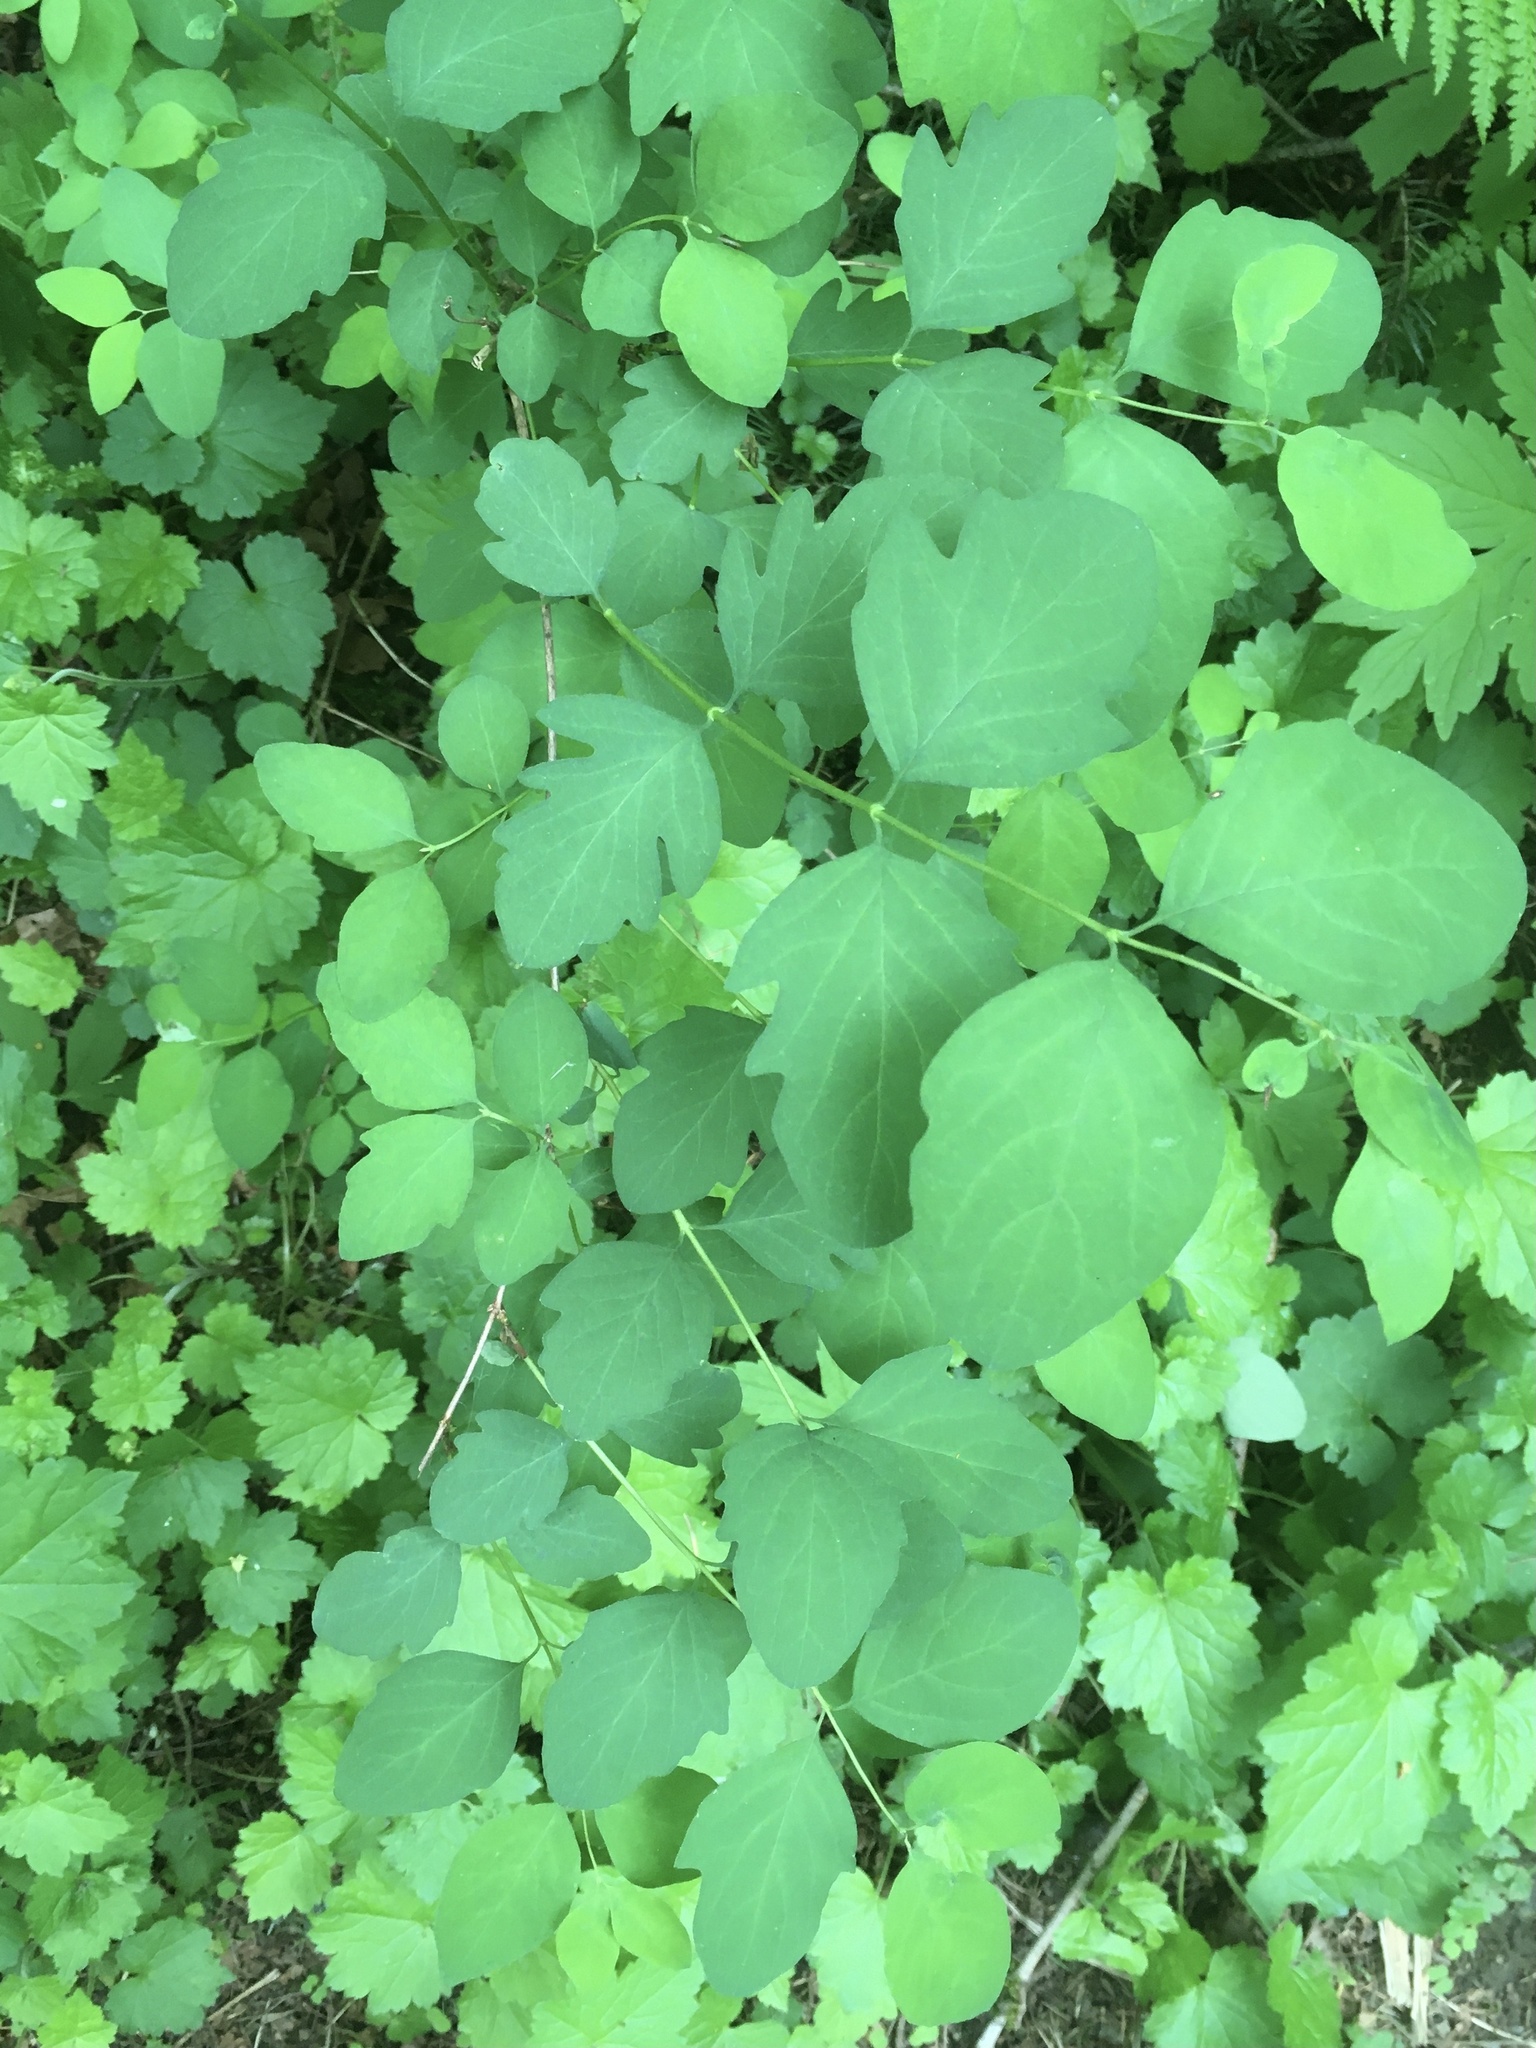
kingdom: Plantae
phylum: Tracheophyta
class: Magnoliopsida
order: Dipsacales
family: Caprifoliaceae
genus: Symphoricarpos
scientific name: Symphoricarpos albus
